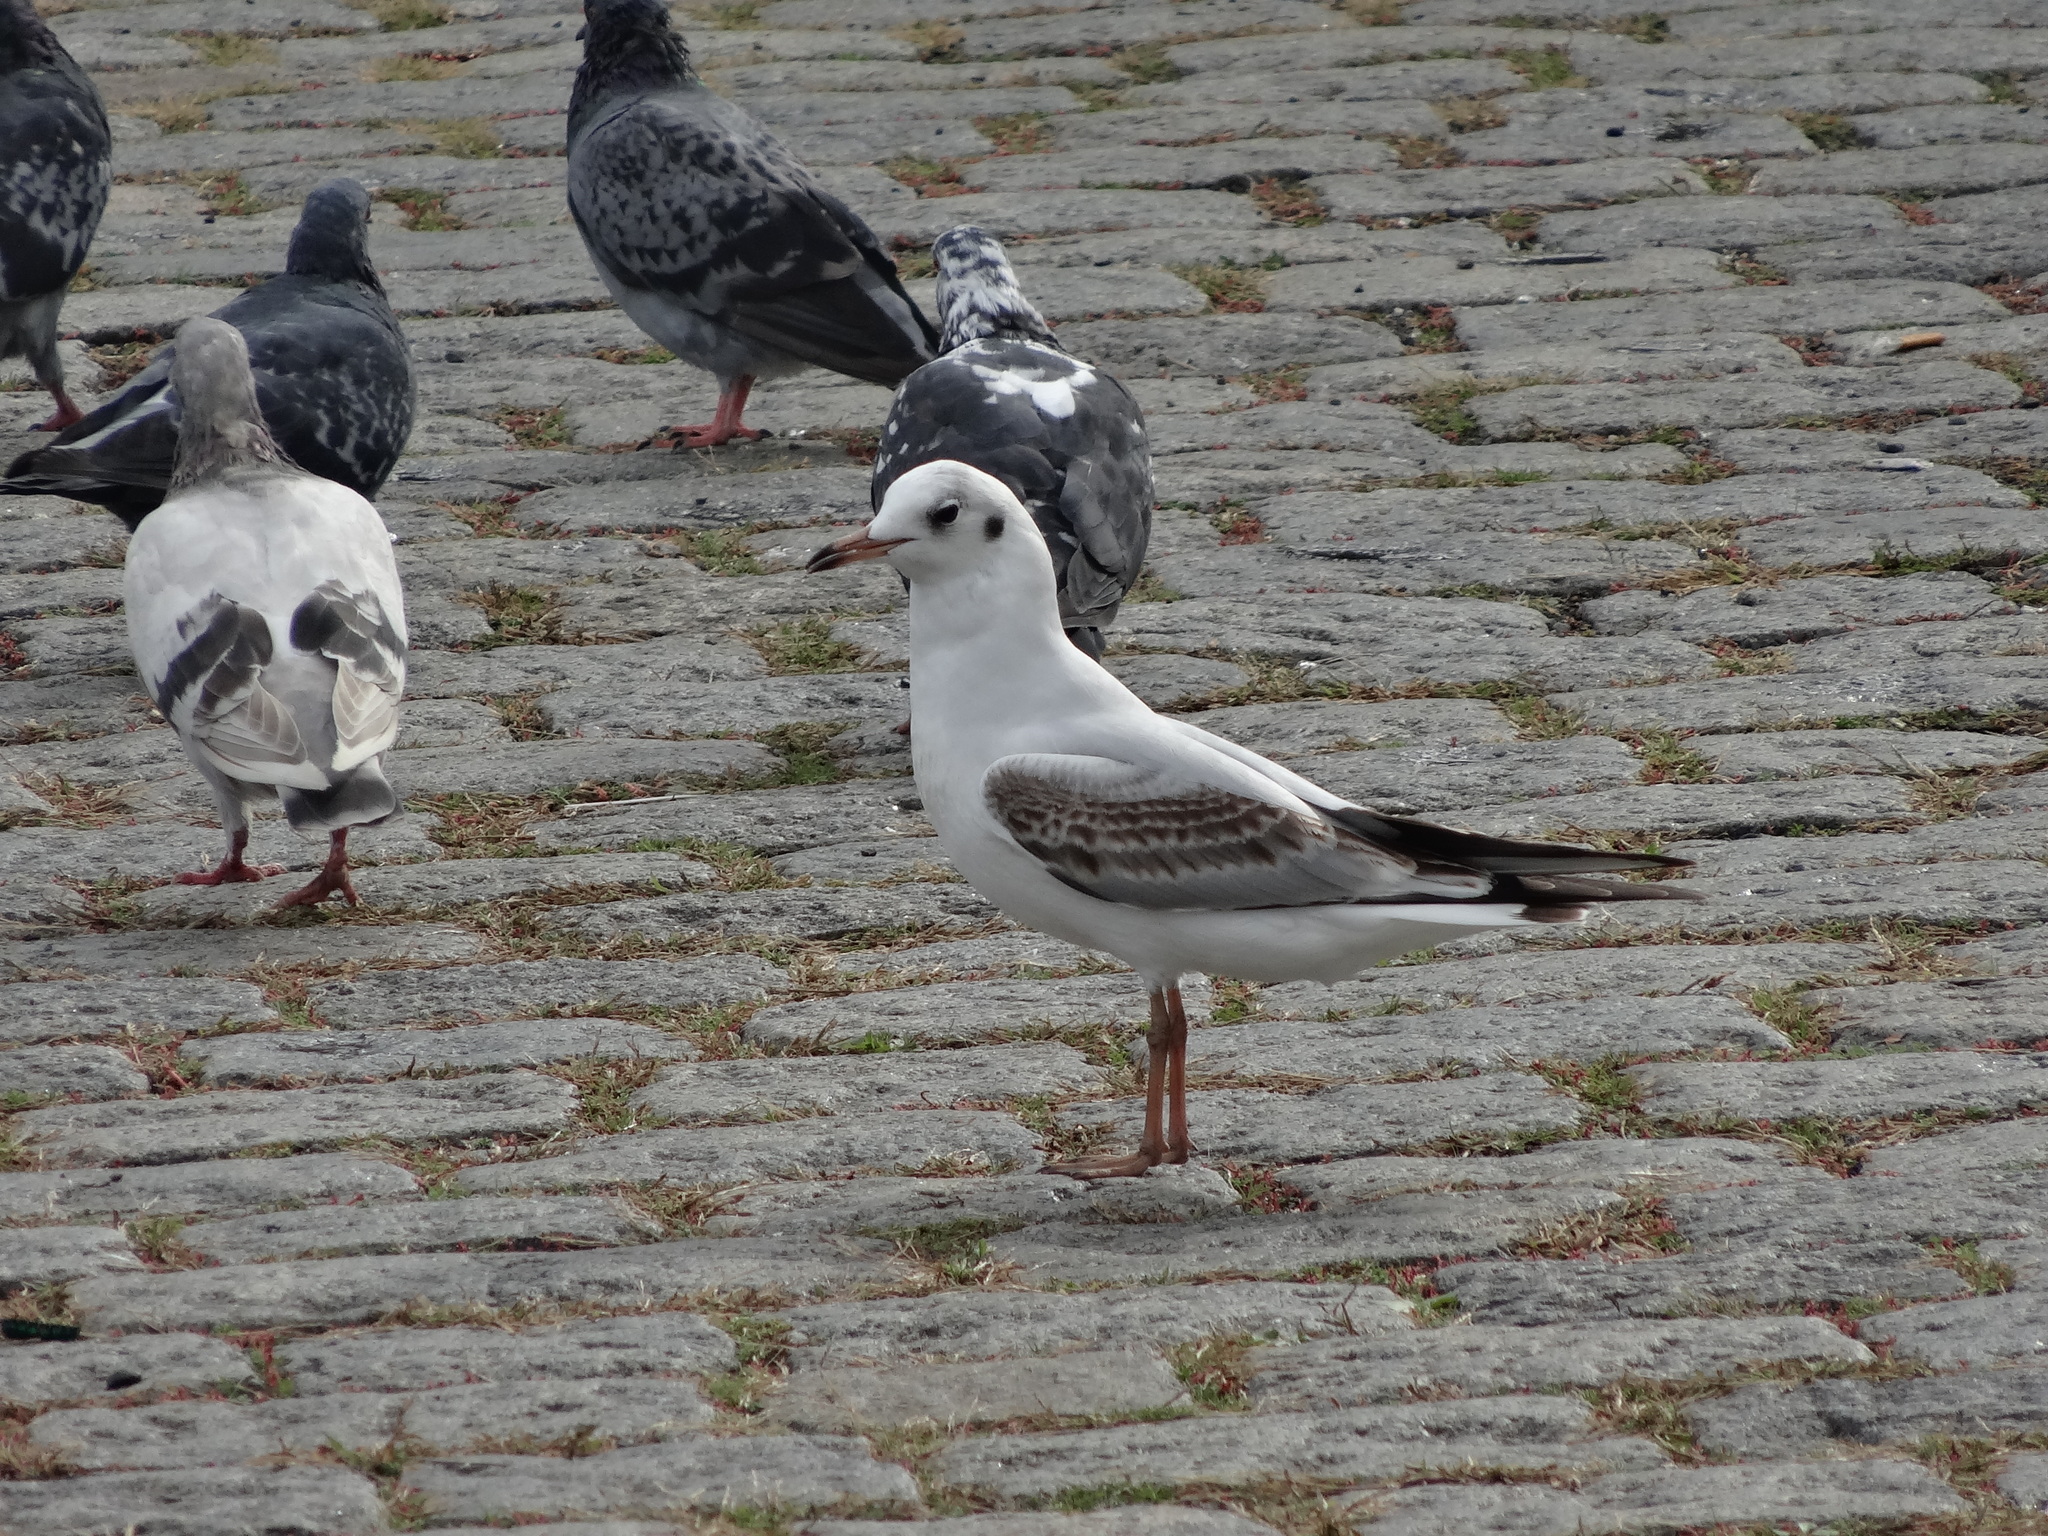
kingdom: Animalia
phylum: Chordata
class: Aves
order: Charadriiformes
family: Laridae
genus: Chroicocephalus
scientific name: Chroicocephalus ridibundus
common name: Black-headed gull
